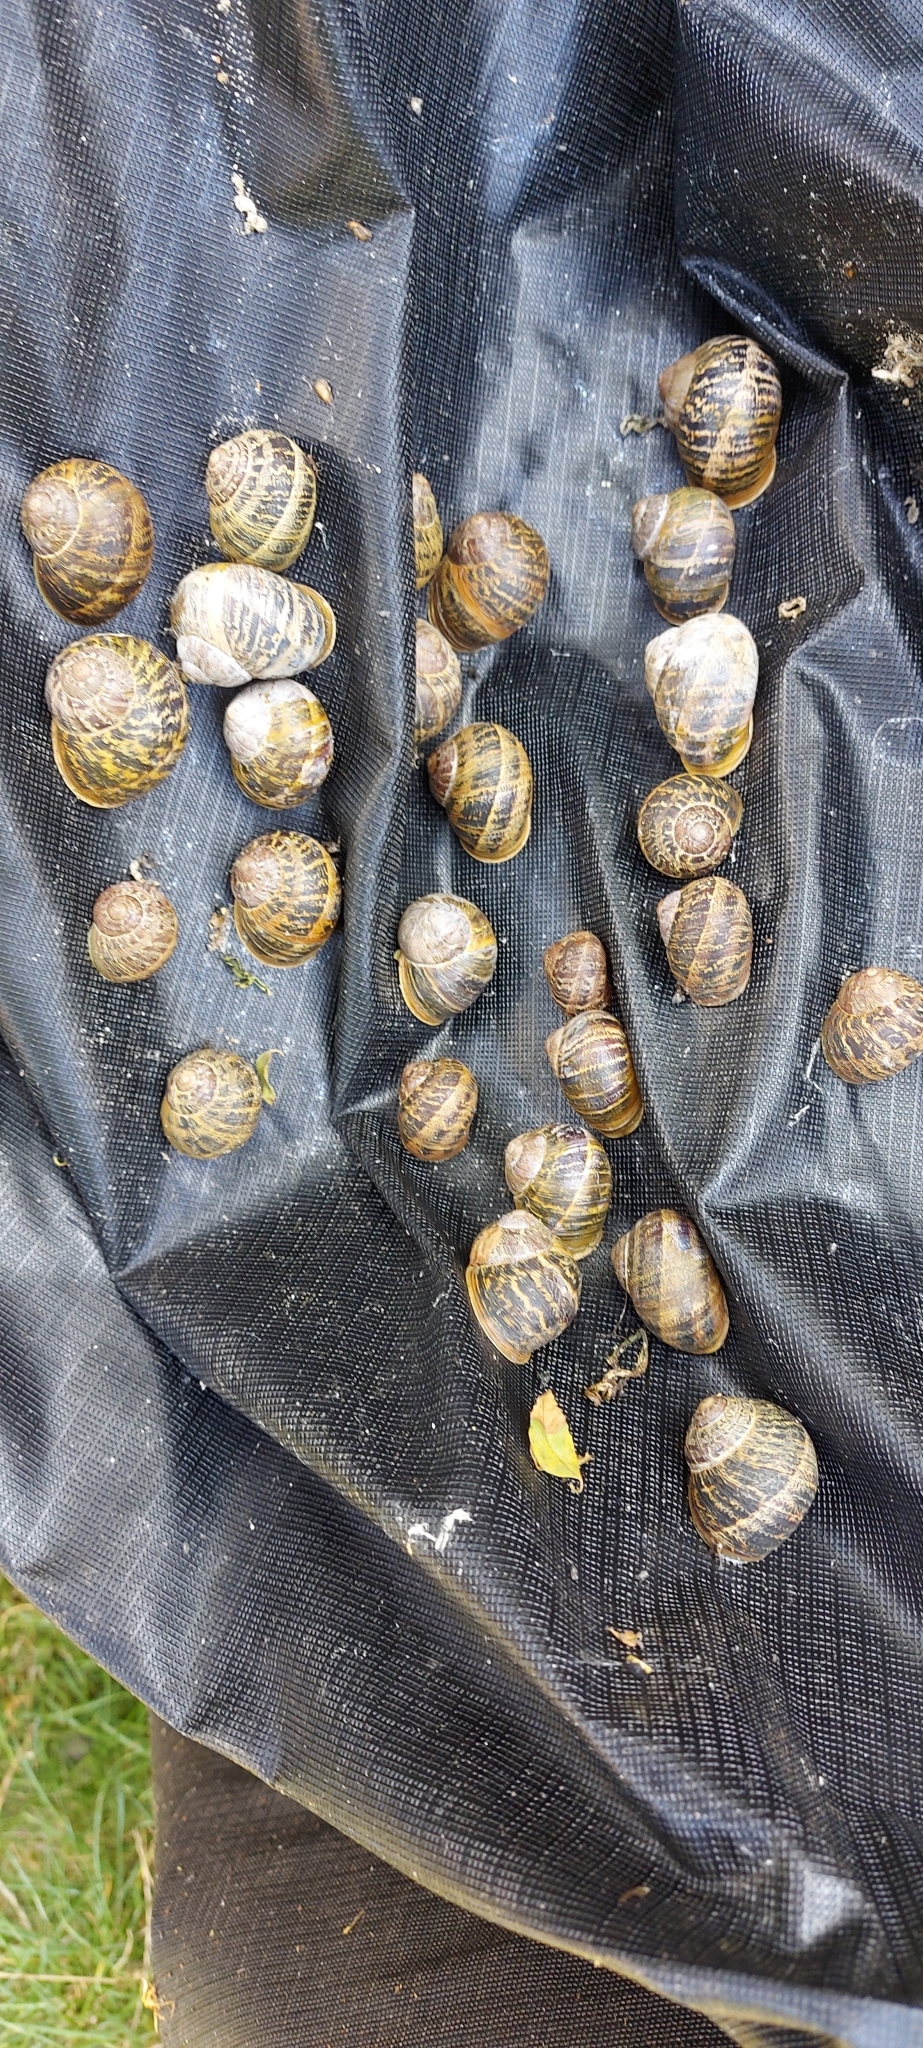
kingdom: Animalia
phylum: Mollusca
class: Gastropoda
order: Stylommatophora
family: Helicidae
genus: Cornu
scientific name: Cornu aspersum
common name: Brown garden snail
